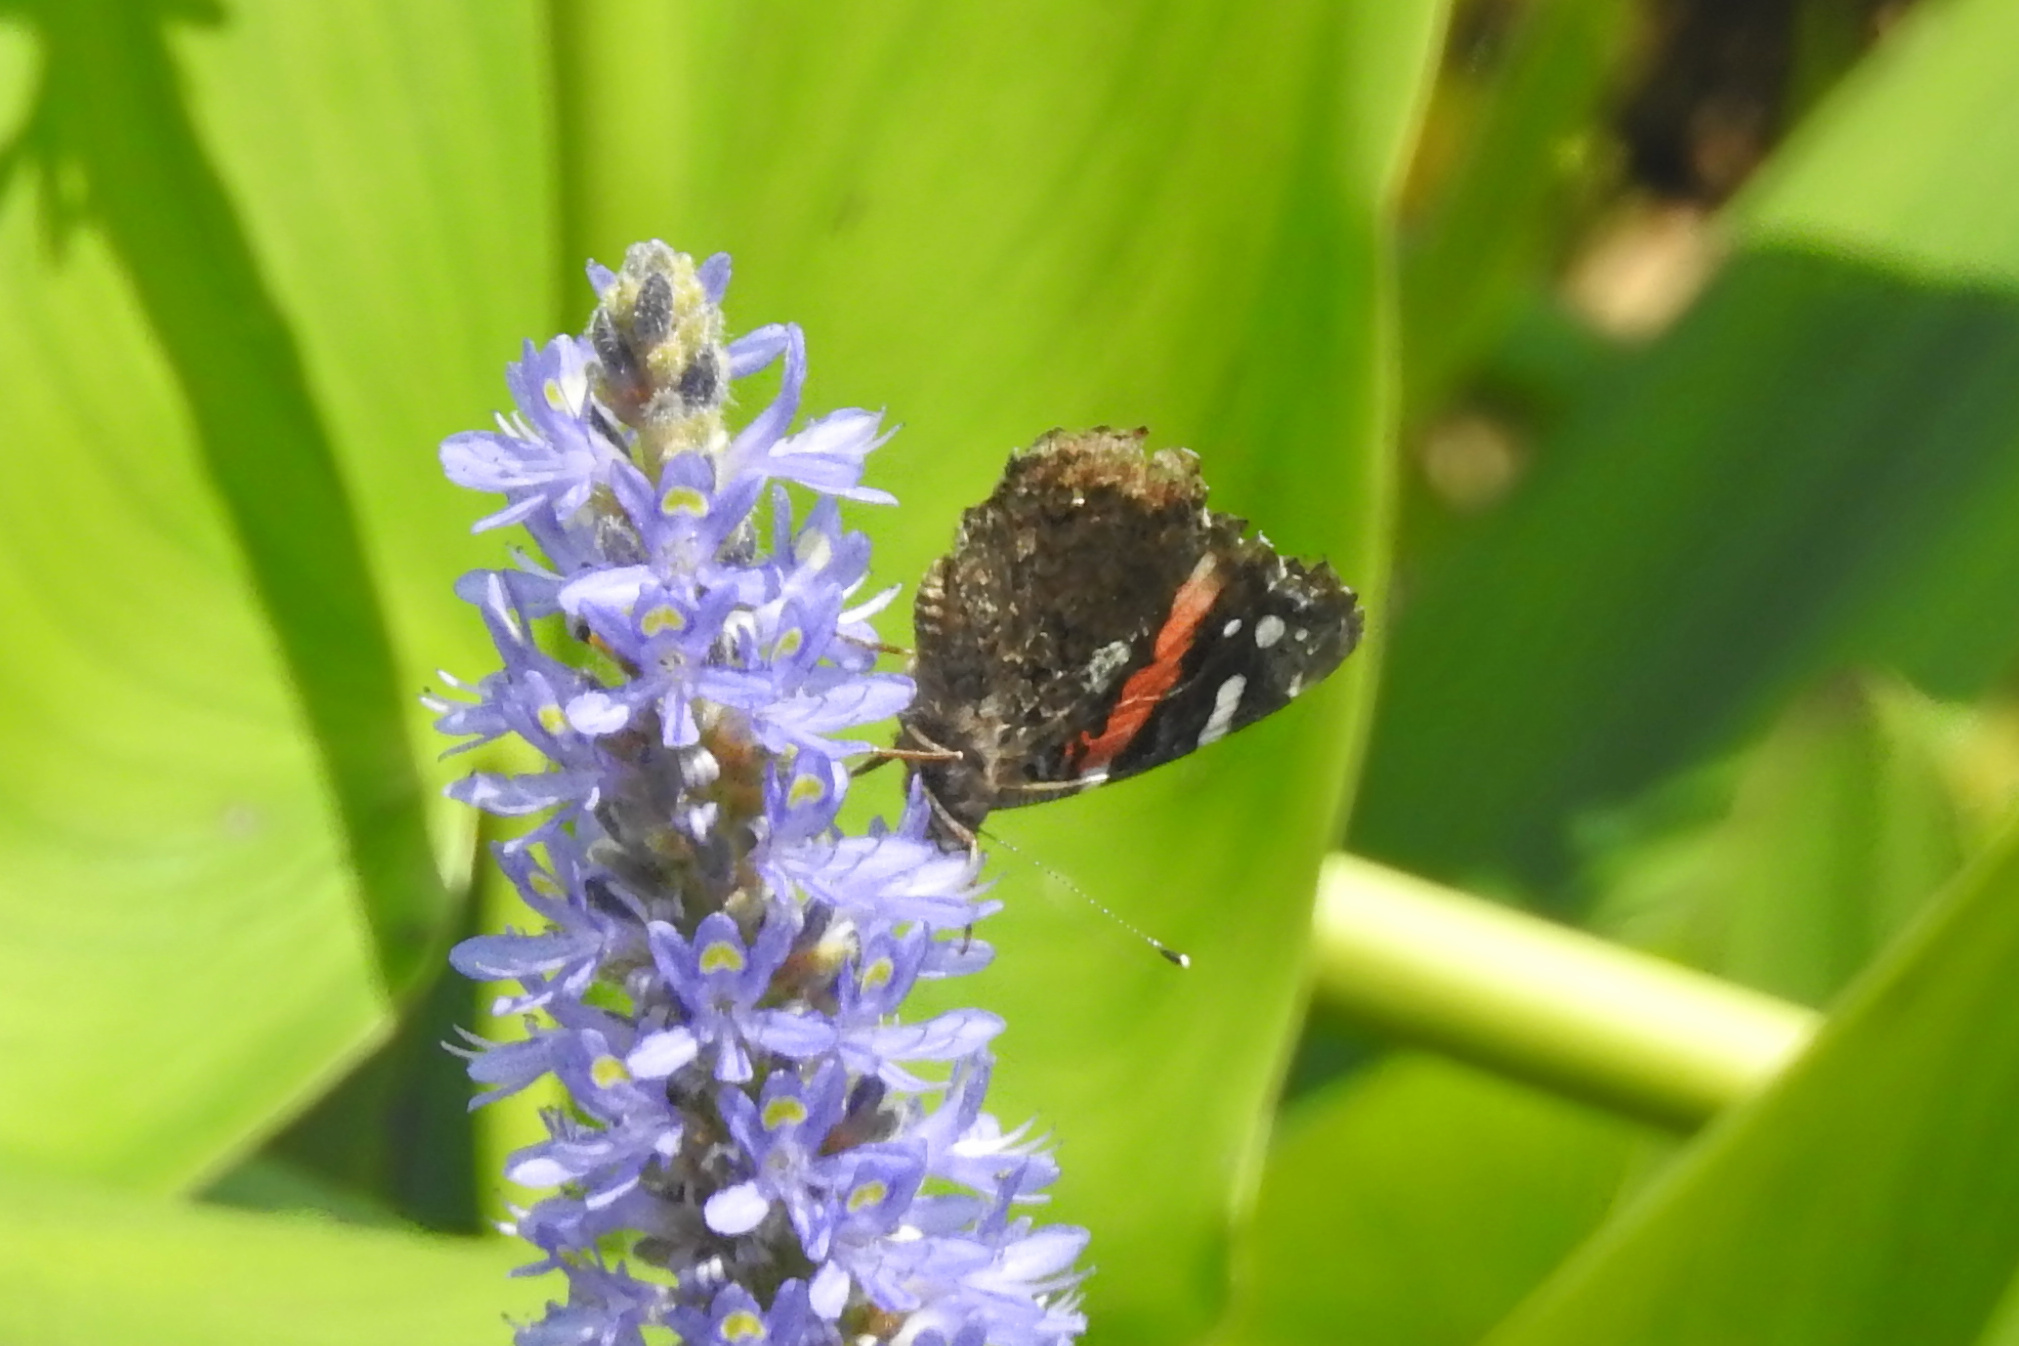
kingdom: Animalia
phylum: Arthropoda
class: Insecta
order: Lepidoptera
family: Nymphalidae
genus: Vanessa
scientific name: Vanessa atalanta
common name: Red admiral
